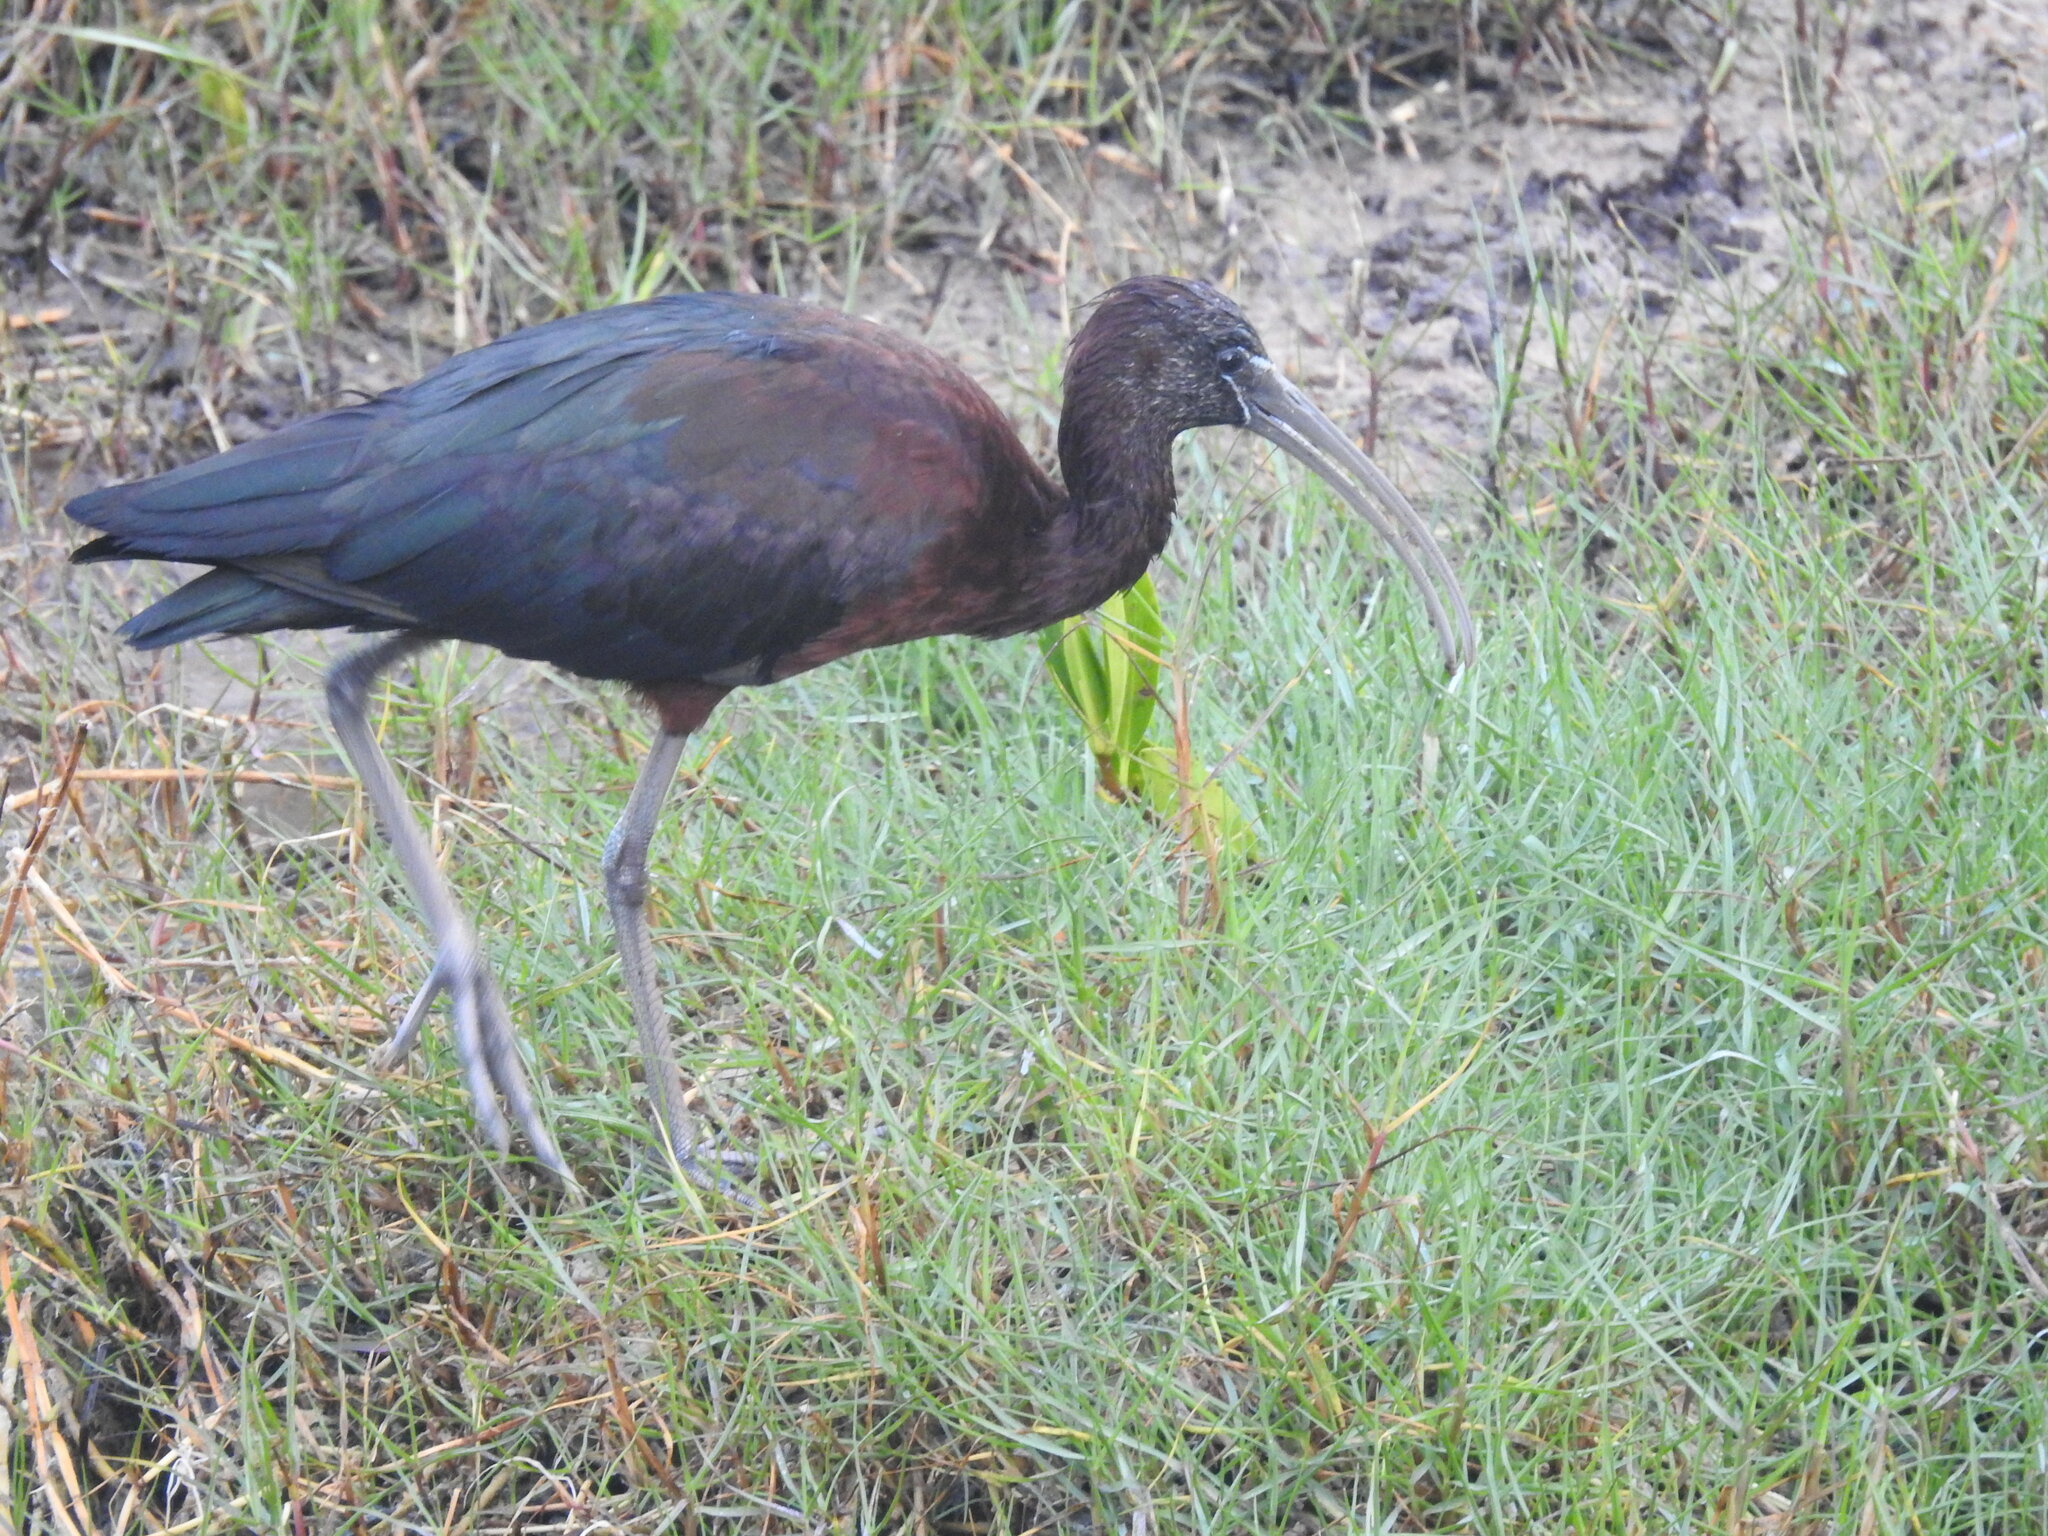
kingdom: Animalia
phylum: Chordata
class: Aves
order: Pelecaniformes
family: Threskiornithidae
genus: Plegadis
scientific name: Plegadis falcinellus
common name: Glossy ibis
